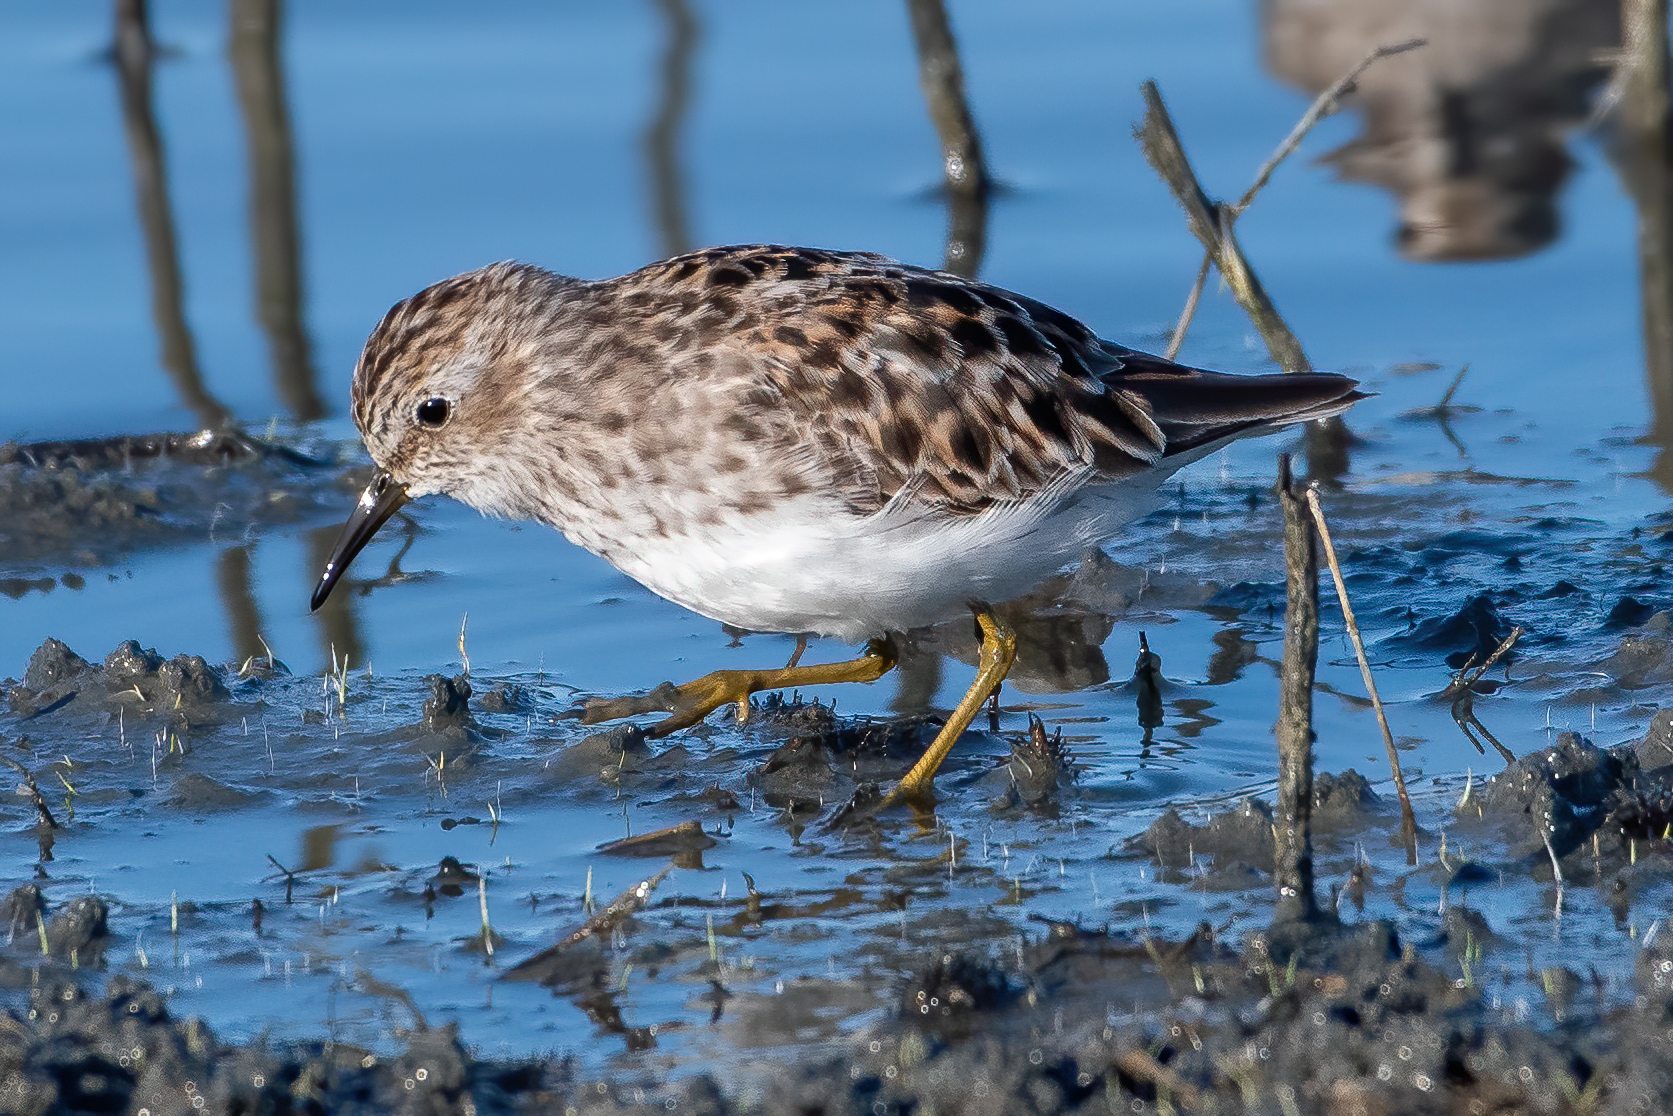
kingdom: Animalia
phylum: Chordata
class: Aves
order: Charadriiformes
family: Scolopacidae
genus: Calidris
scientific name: Calidris minutilla
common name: Least sandpiper
